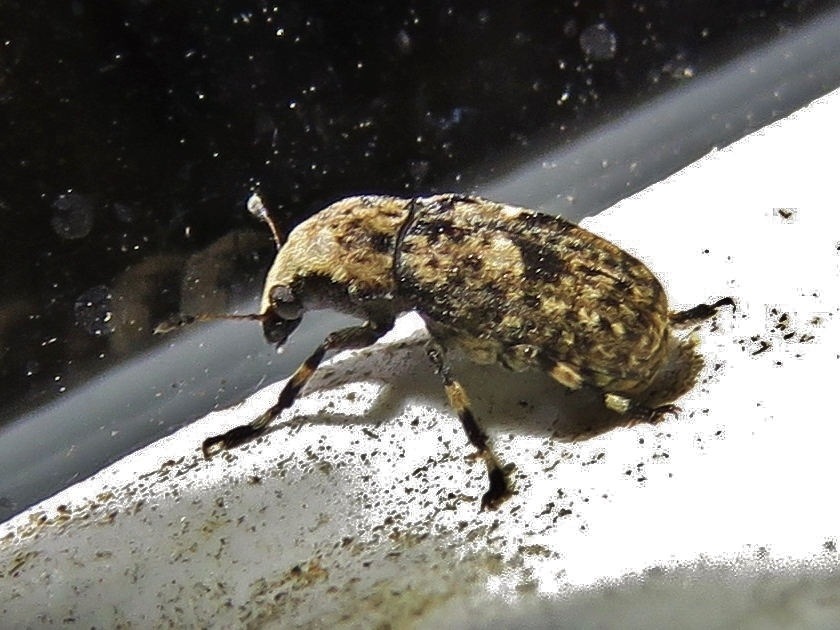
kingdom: Animalia
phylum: Arthropoda
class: Insecta
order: Coleoptera
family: Anthribidae
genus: Euparius
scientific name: Euparius marmoreus
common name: Marbled fungus weevil
